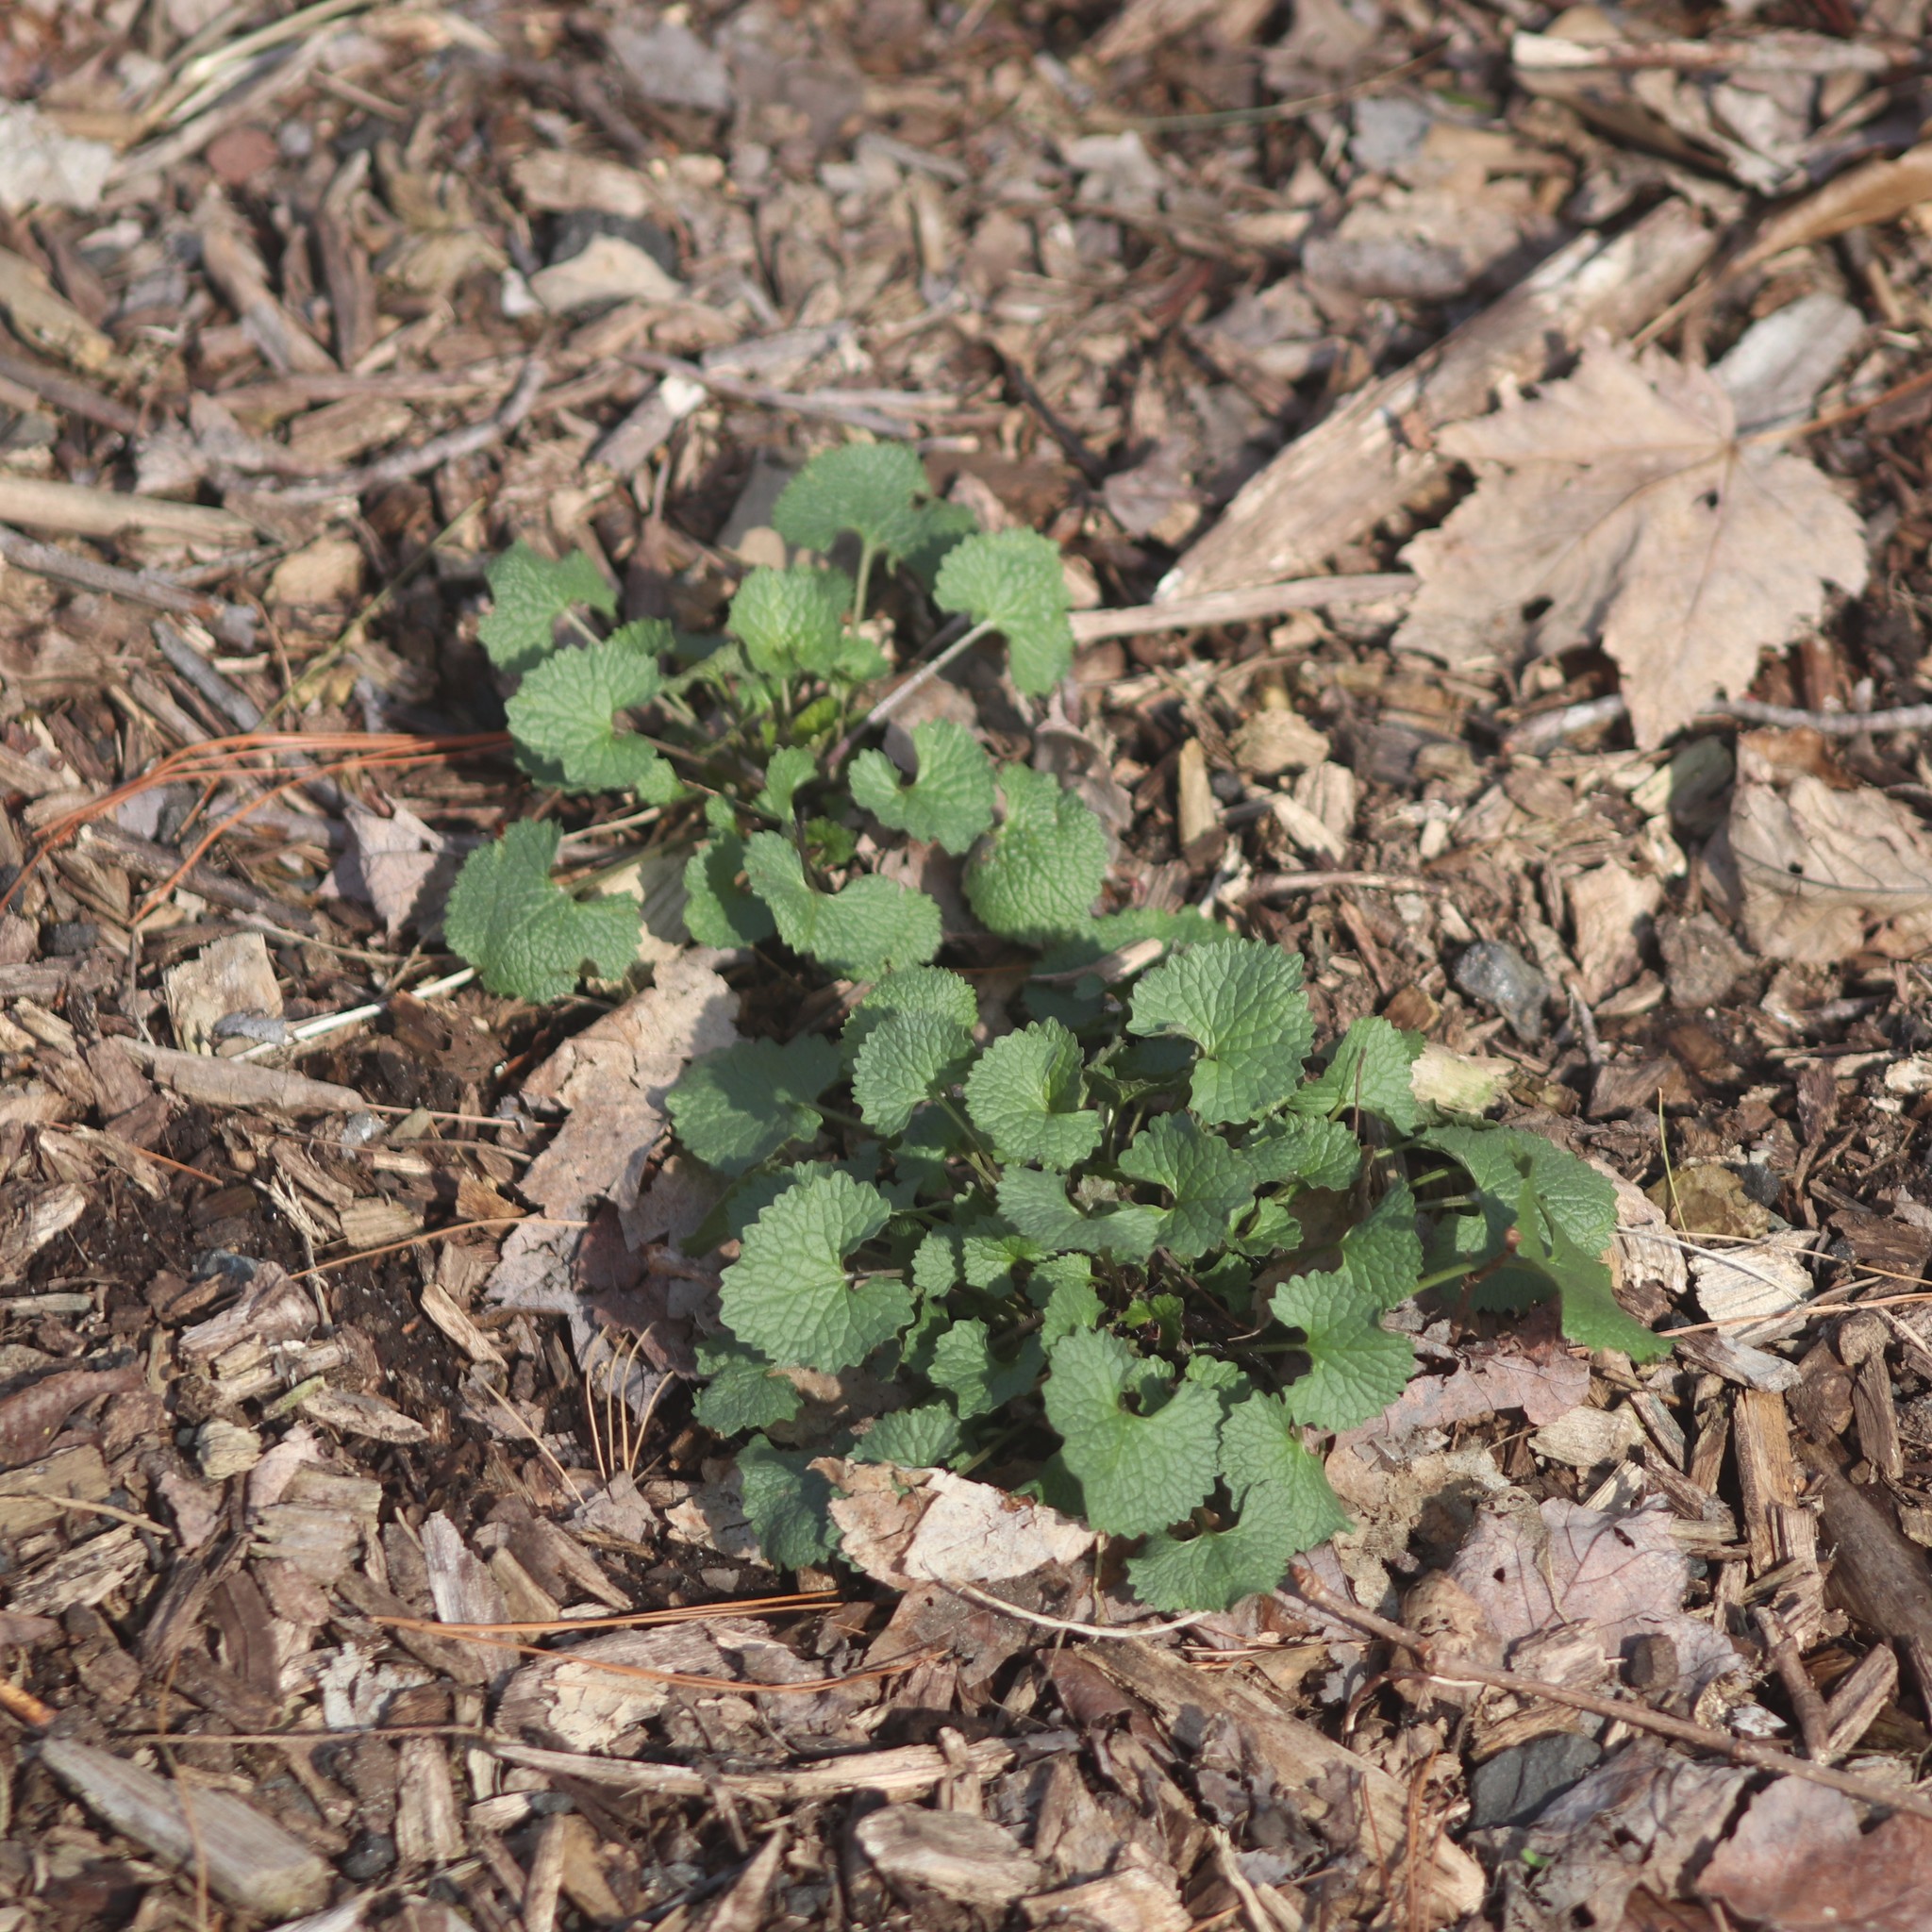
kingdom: Plantae
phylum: Tracheophyta
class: Magnoliopsida
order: Brassicales
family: Brassicaceae
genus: Alliaria
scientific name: Alliaria petiolata
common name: Garlic mustard
